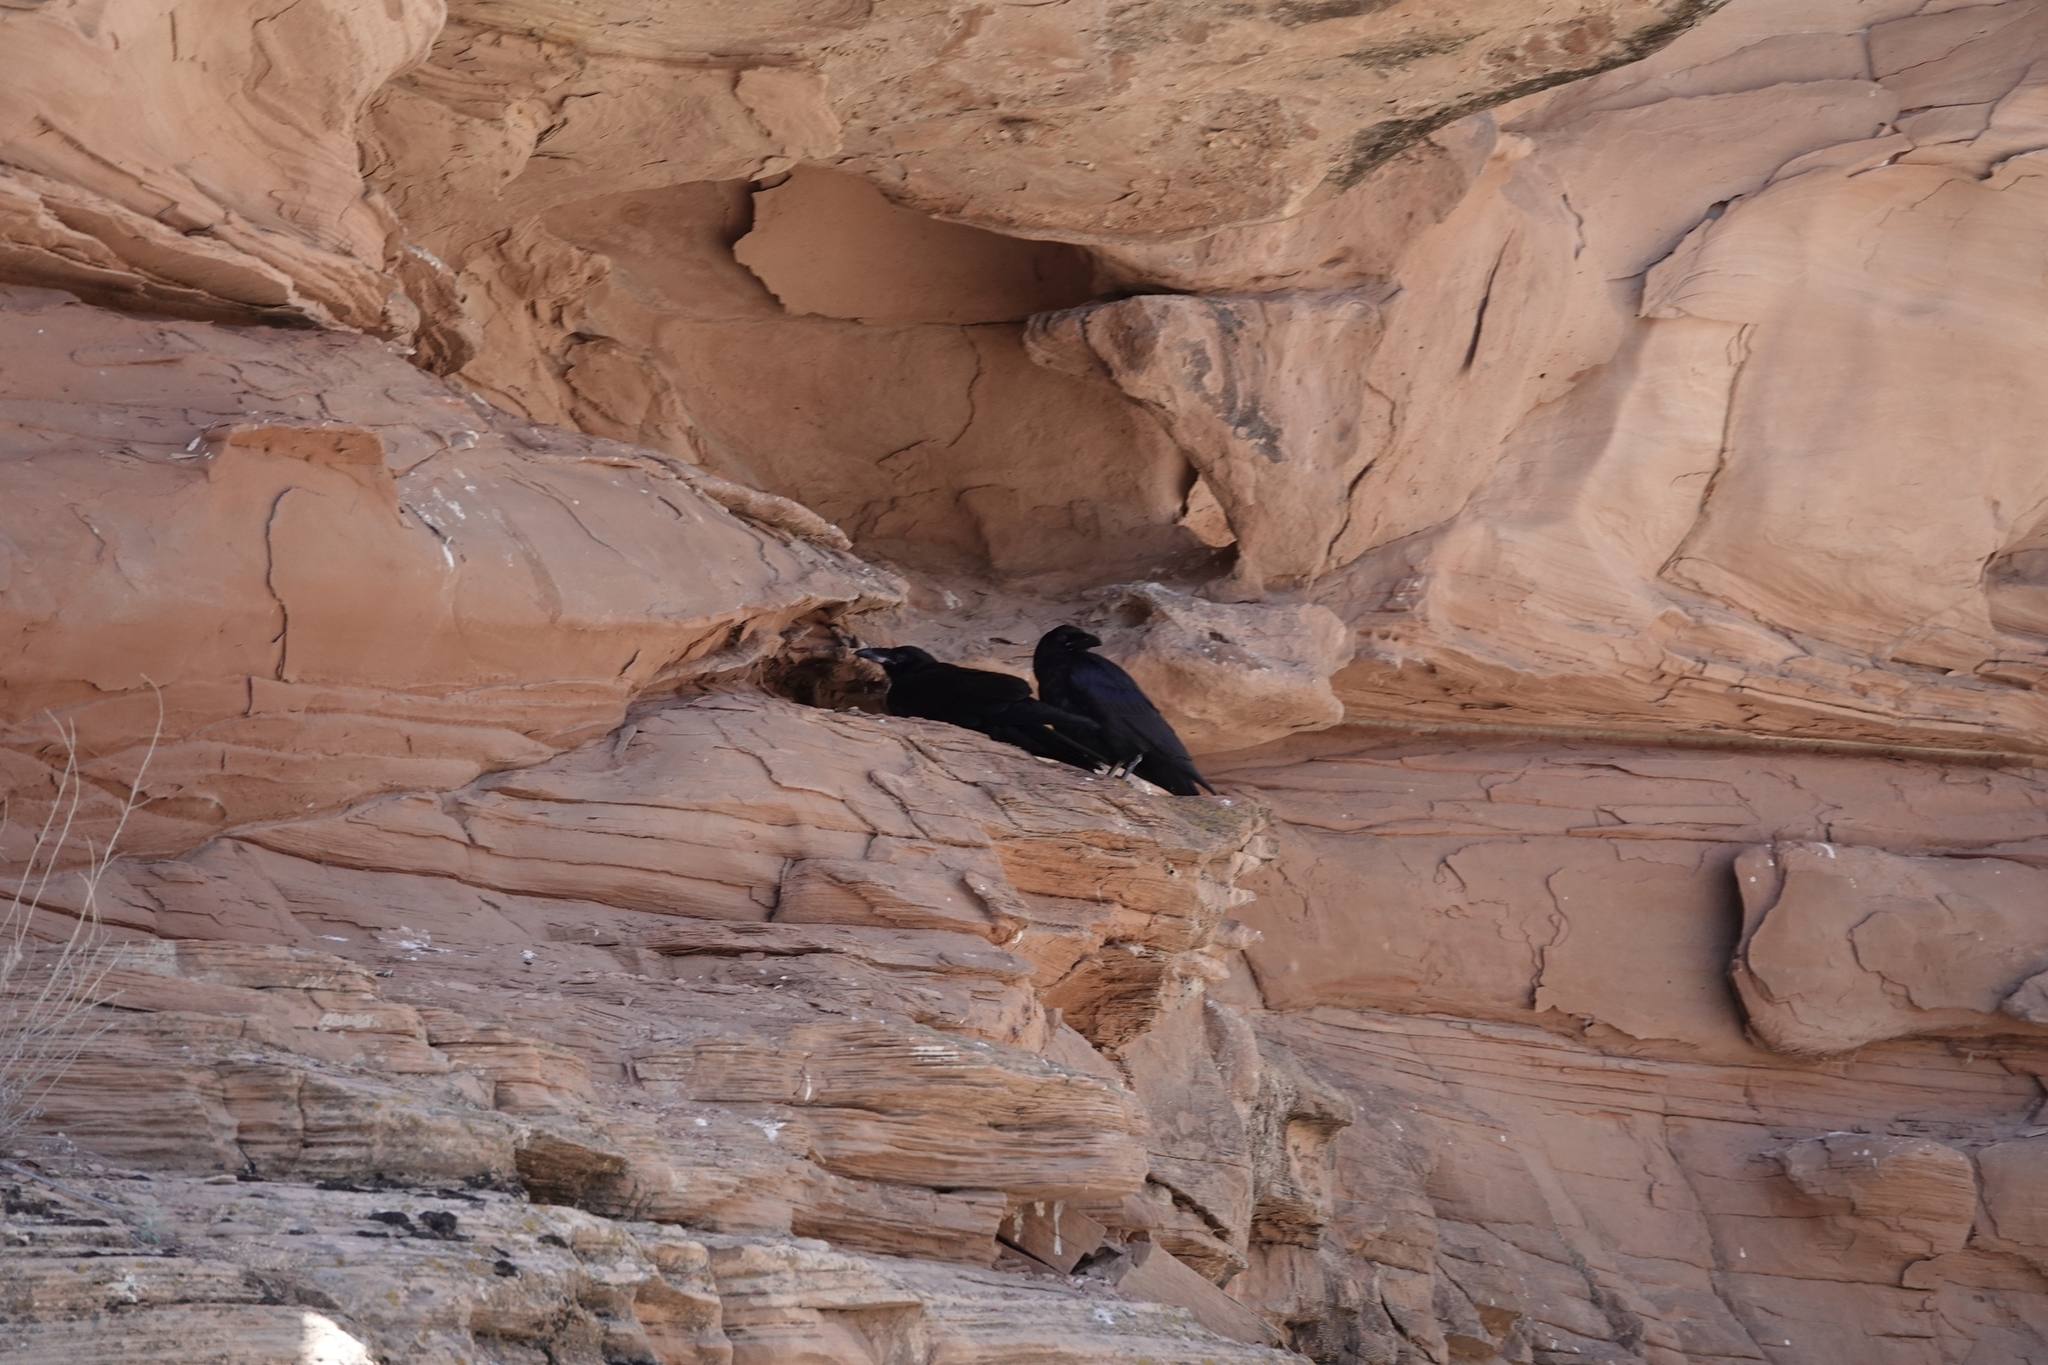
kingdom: Animalia
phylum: Chordata
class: Aves
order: Passeriformes
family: Corvidae
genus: Corvus
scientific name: Corvus corax
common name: Common raven
